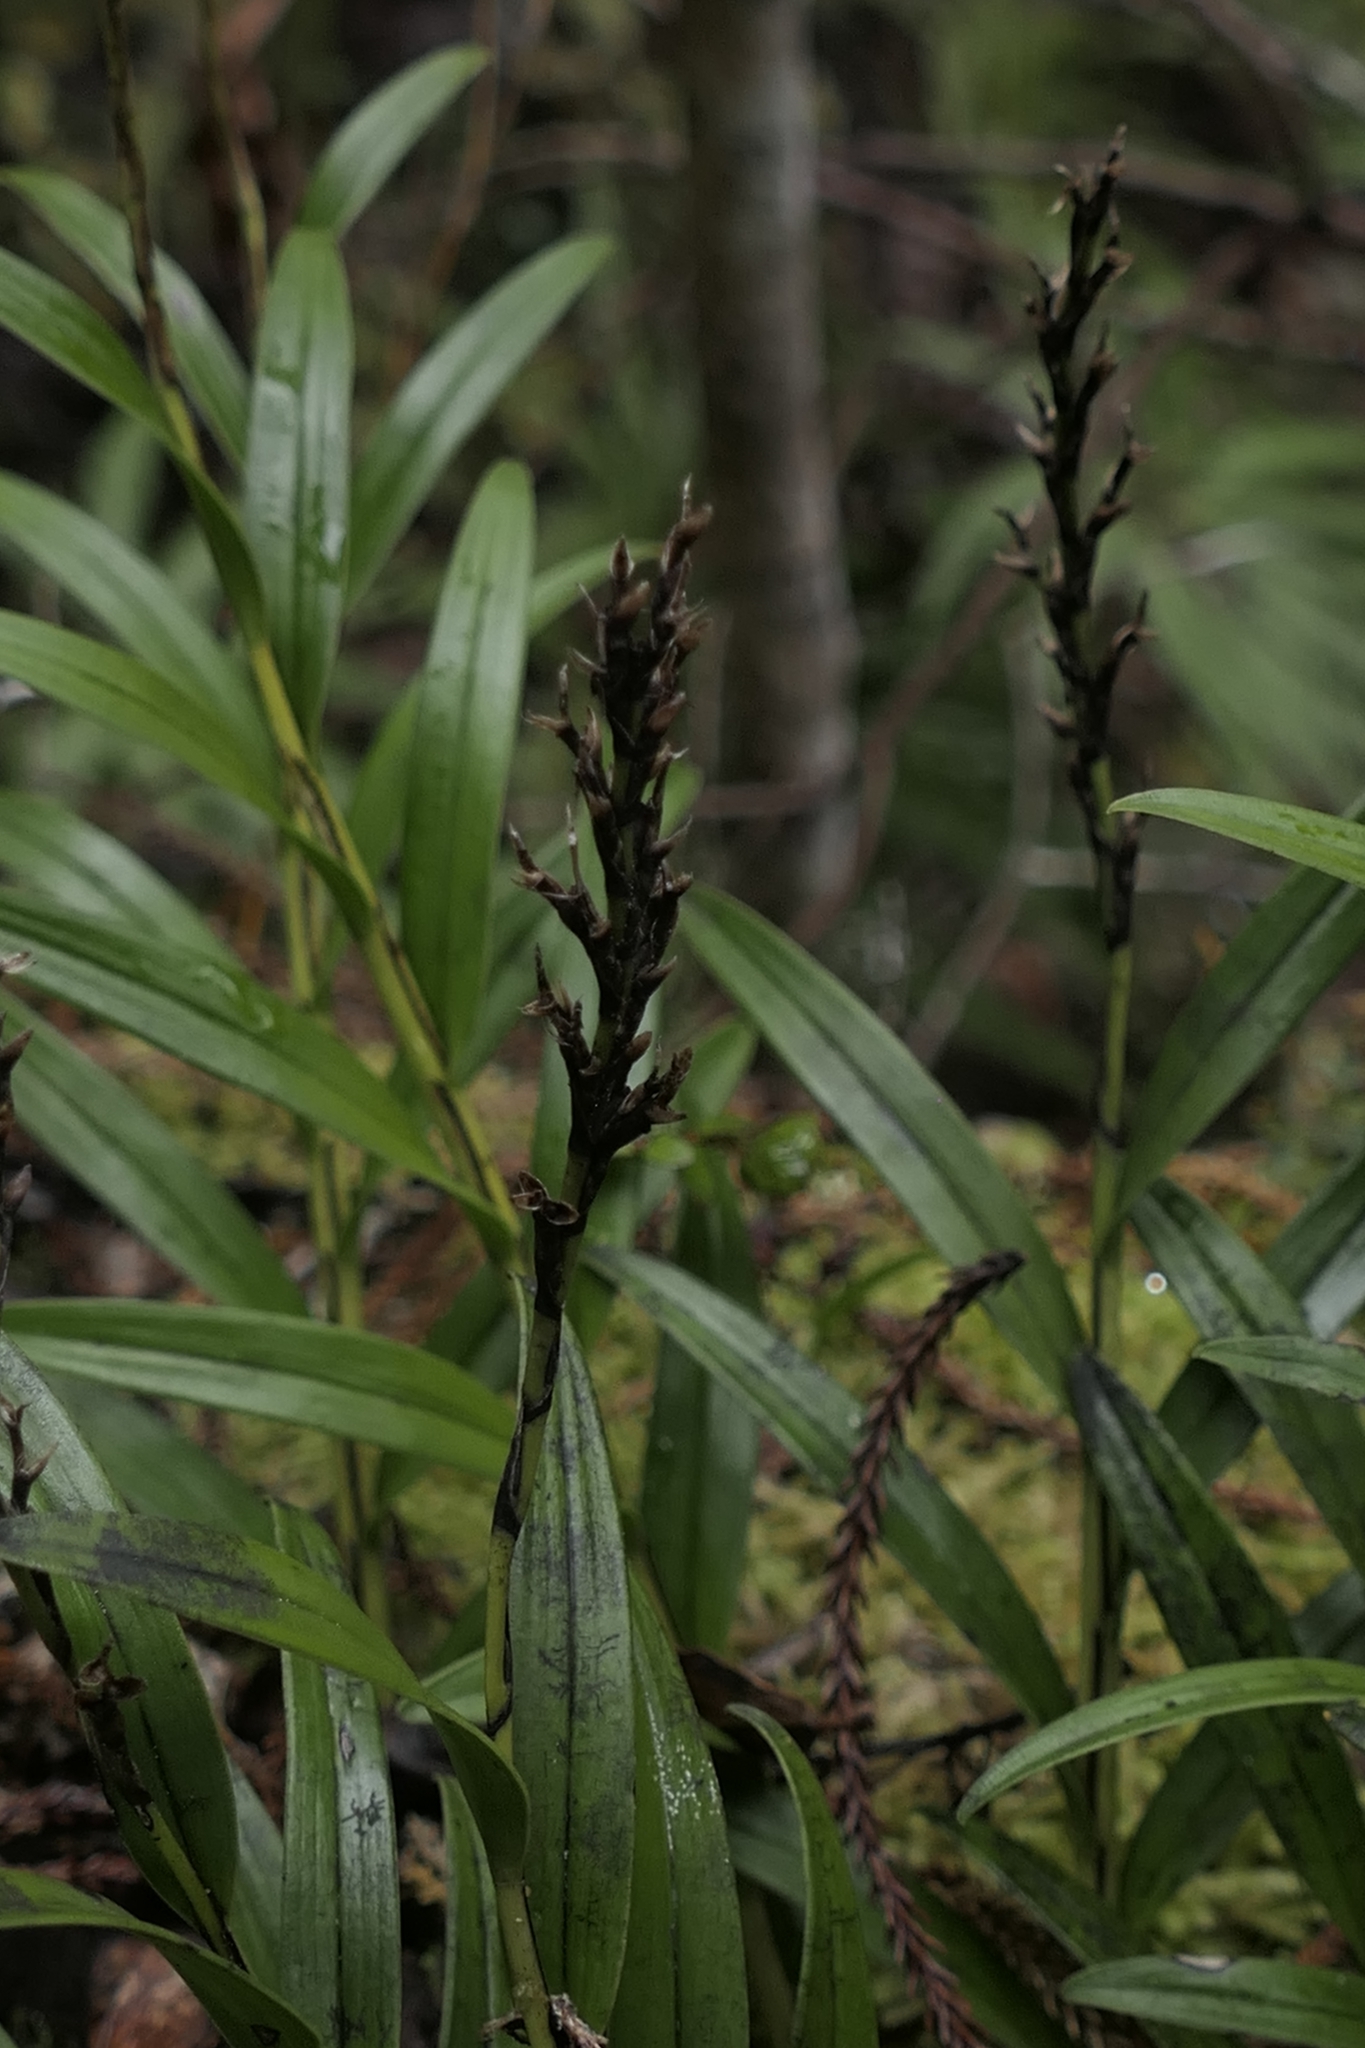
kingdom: Plantae
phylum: Tracheophyta
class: Liliopsida
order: Asparagales
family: Orchidaceae
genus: Earina
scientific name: Earina autumnalis
